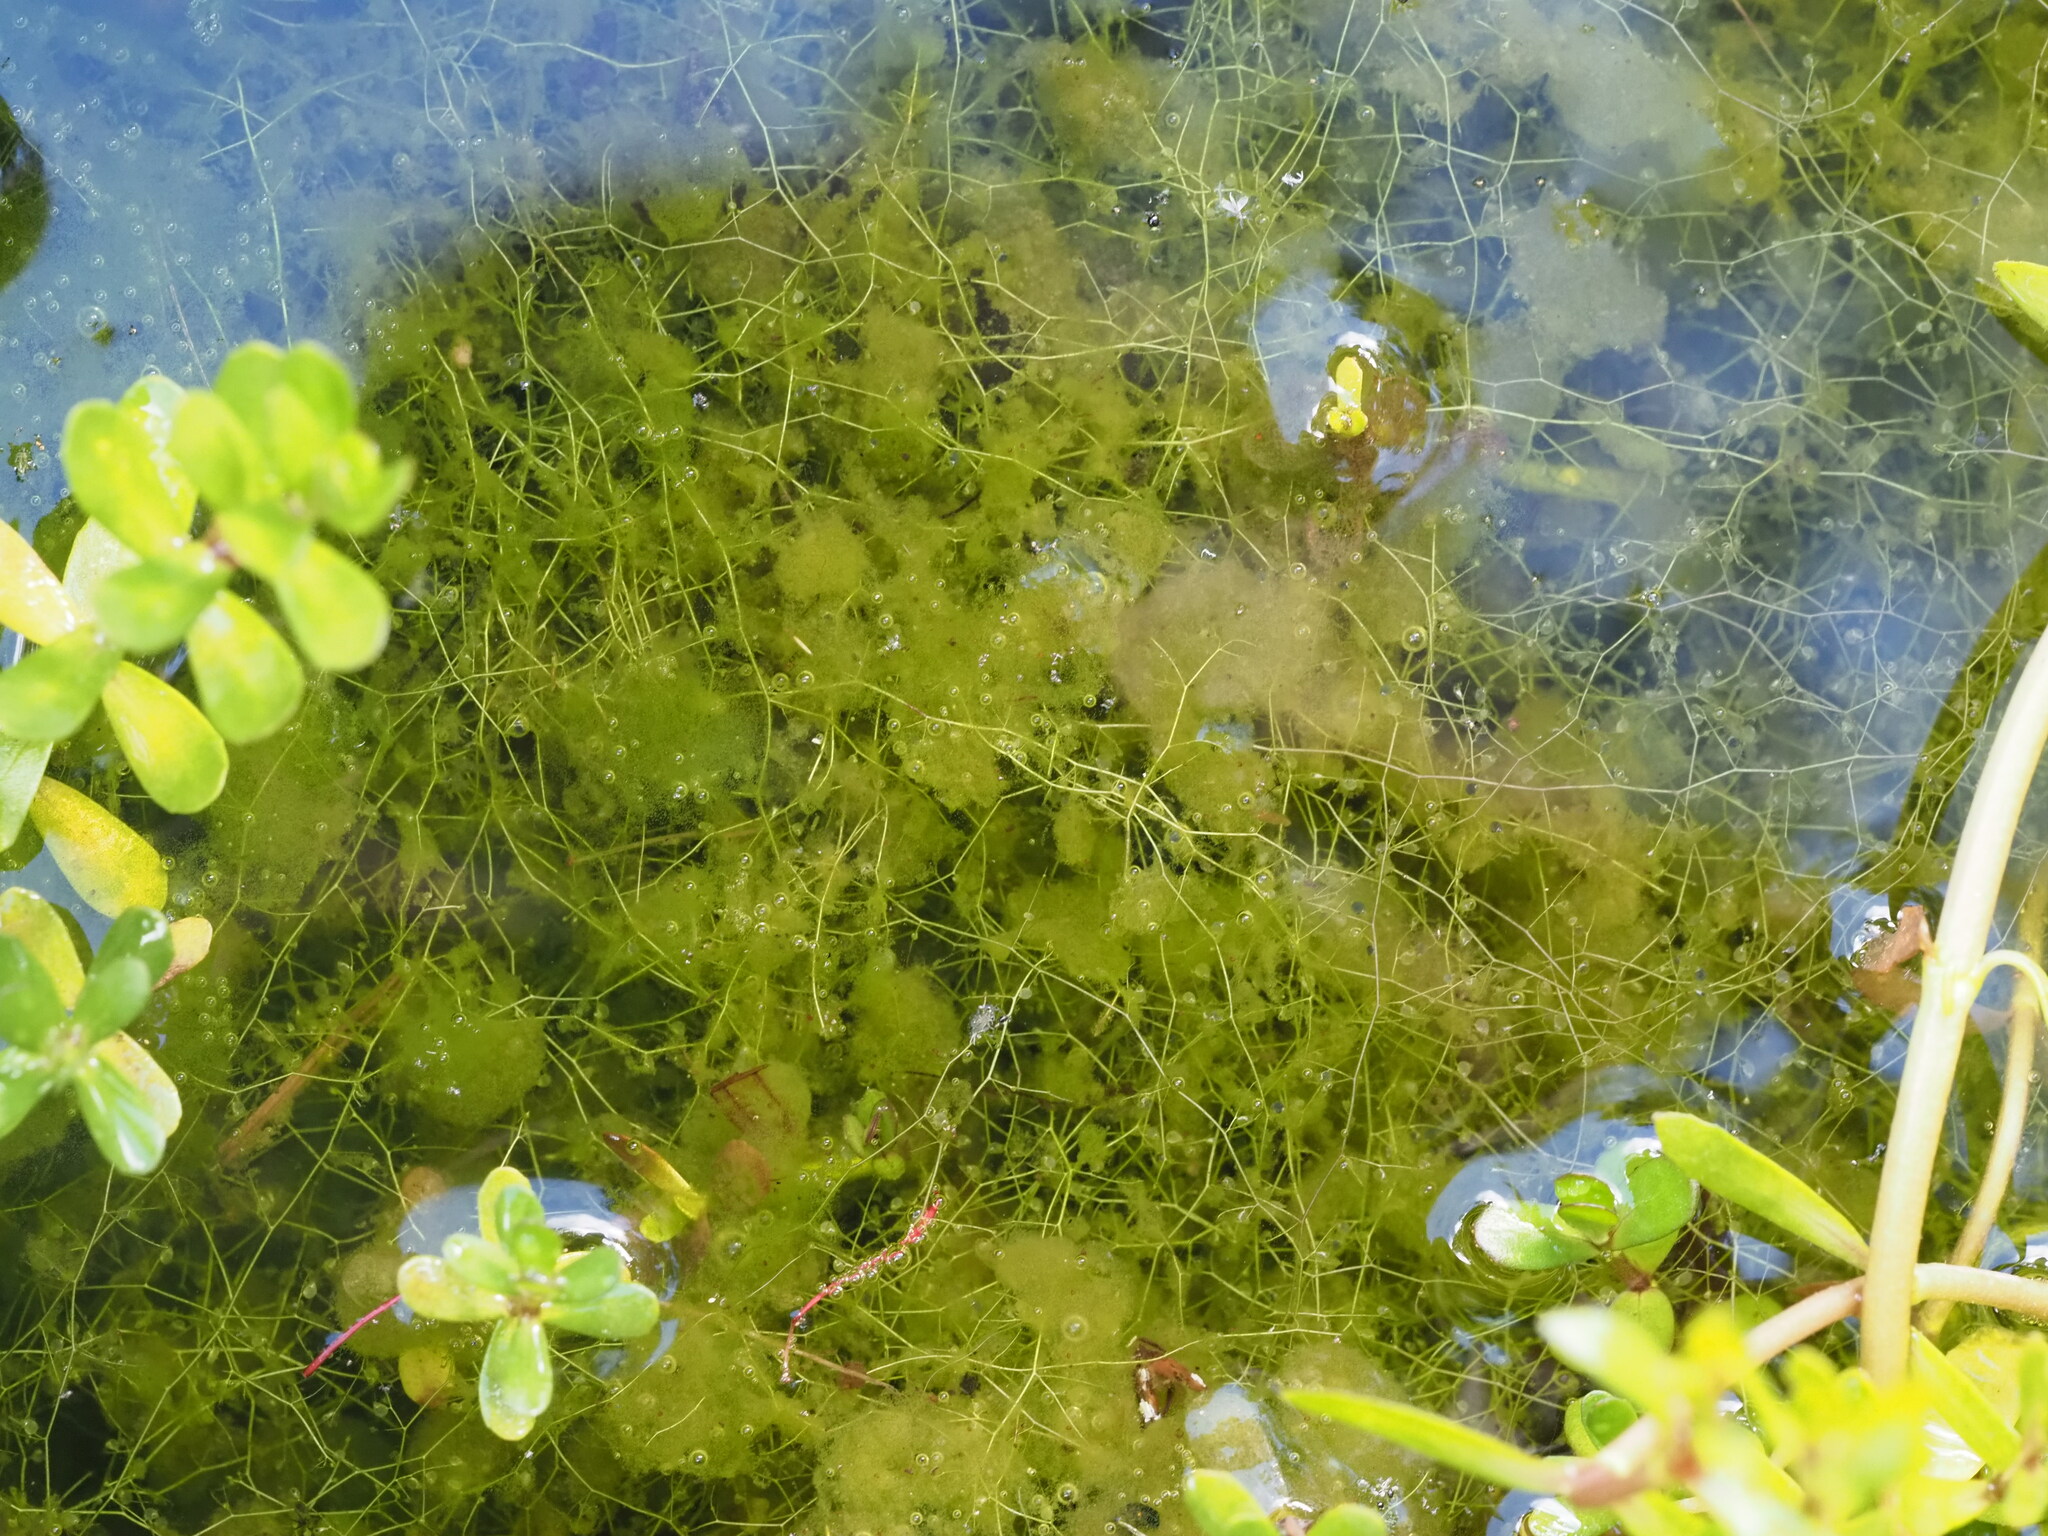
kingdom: Plantae
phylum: Tracheophyta
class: Magnoliopsida
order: Lamiales
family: Lentibulariaceae
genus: Utricularia
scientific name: Utricularia gibba
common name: Humped bladderwort
